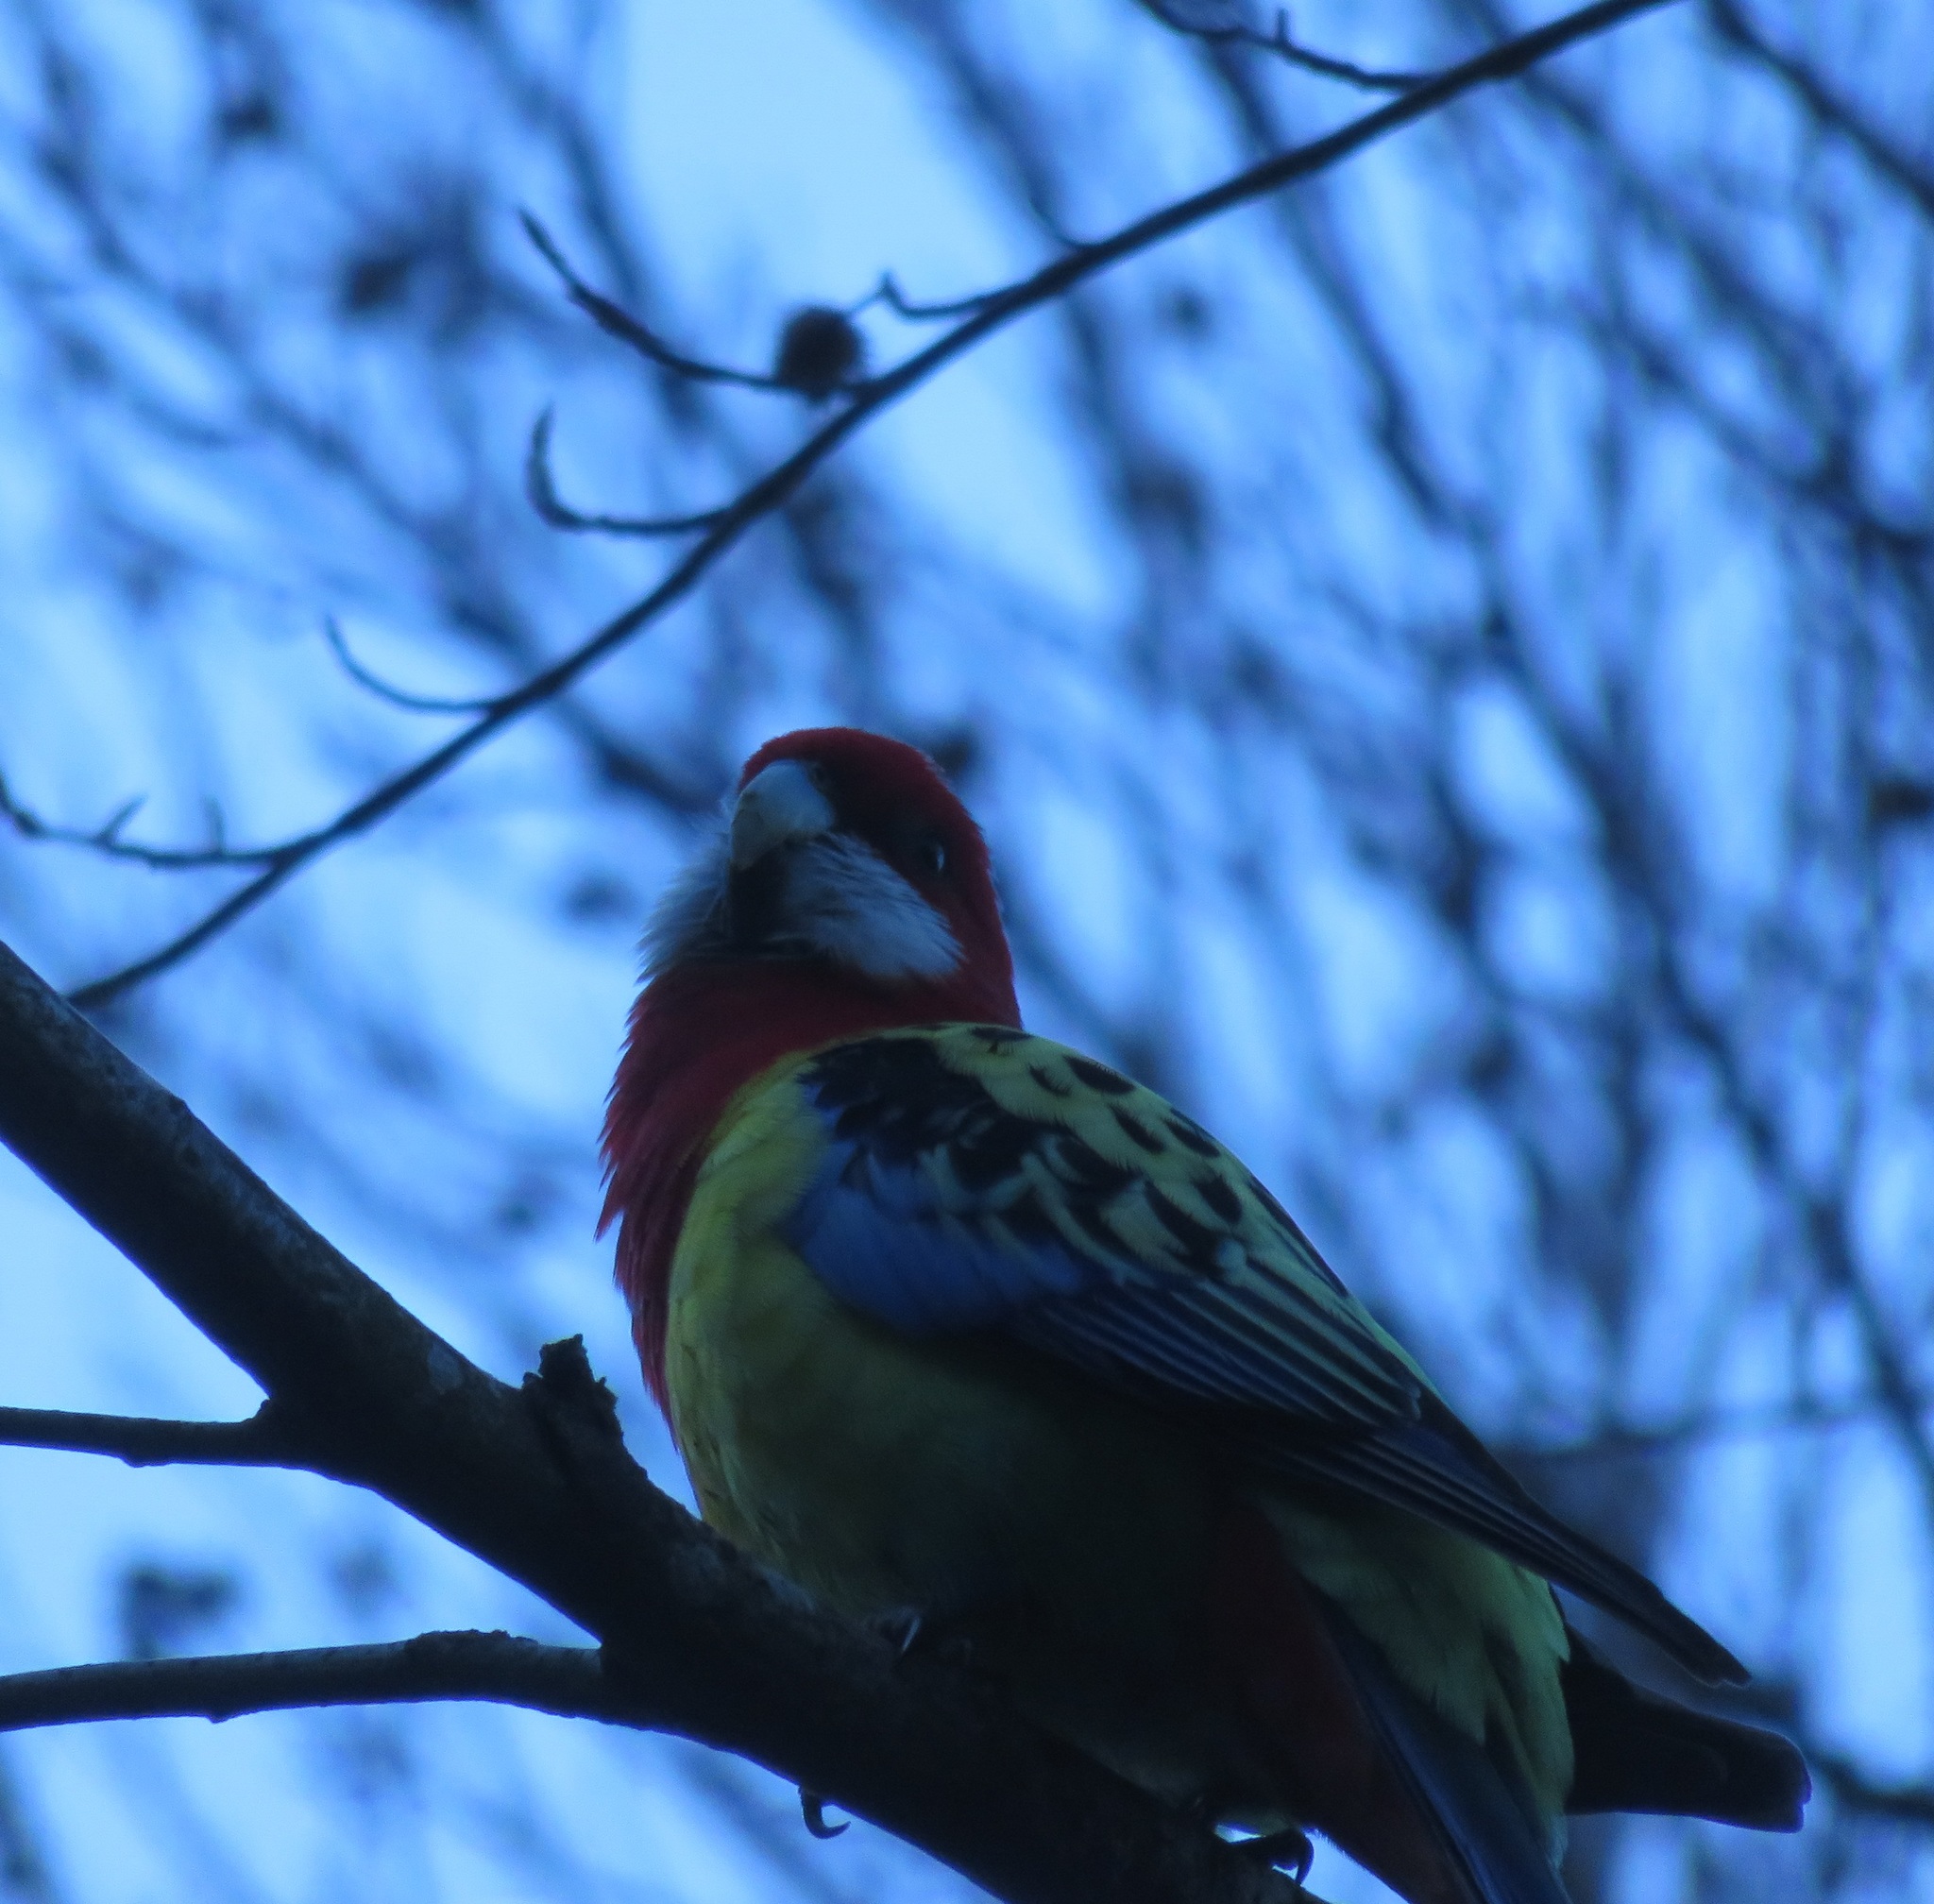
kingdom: Animalia
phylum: Chordata
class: Aves
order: Psittaciformes
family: Psittacidae
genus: Platycercus
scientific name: Platycercus eximius
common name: Eastern rosella
